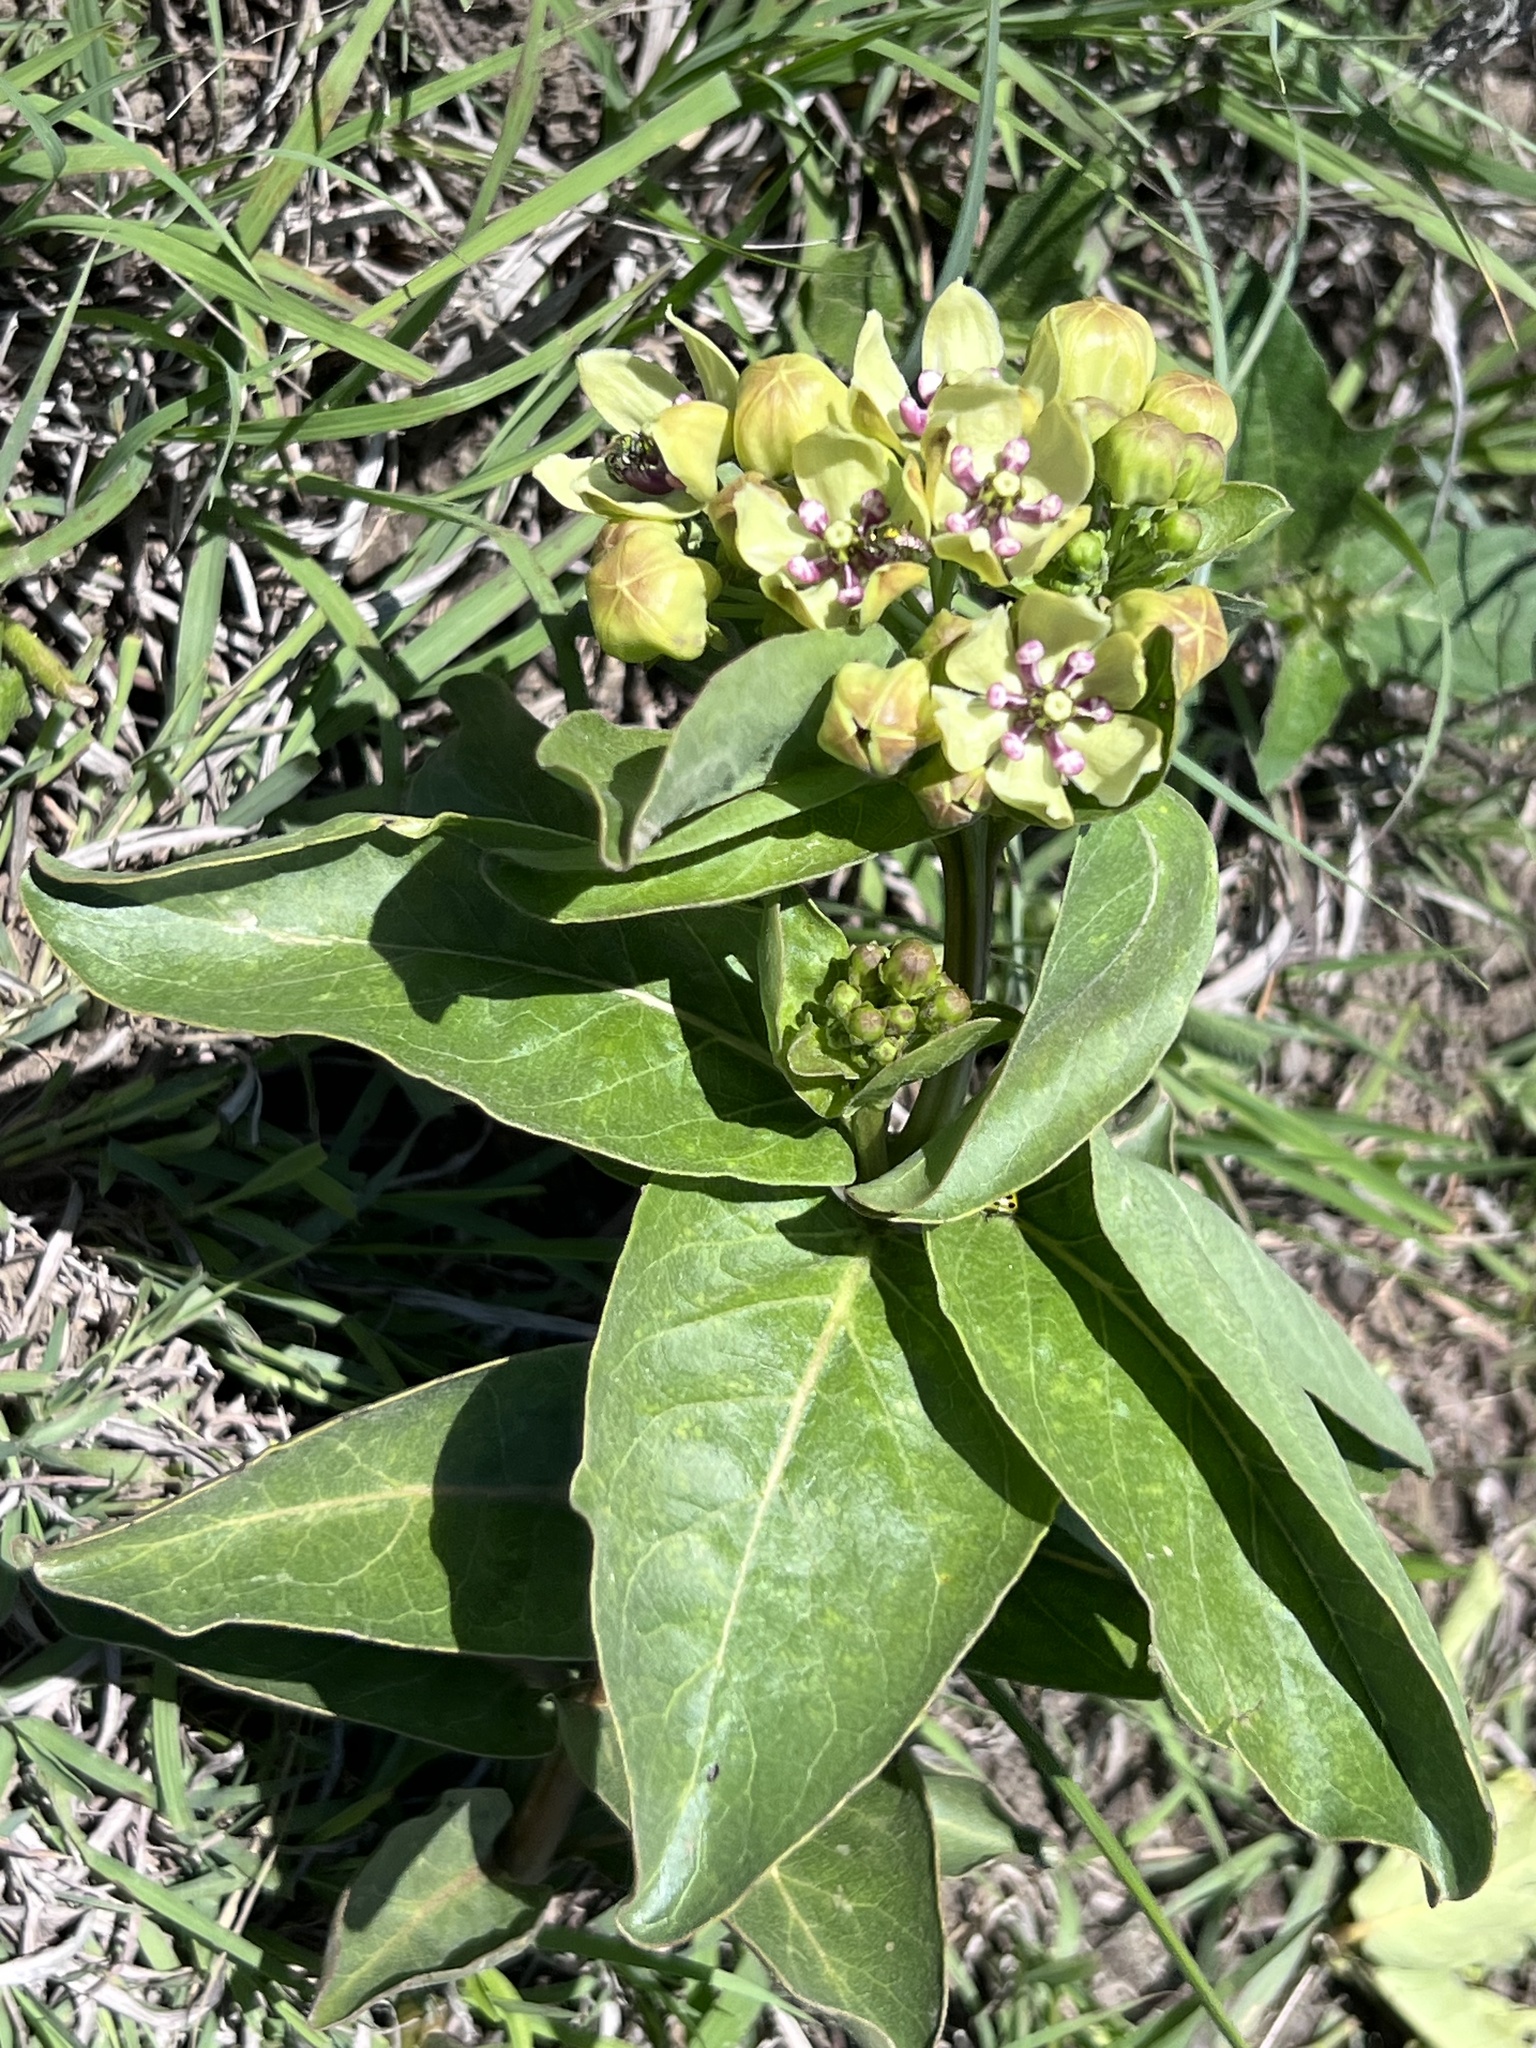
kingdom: Plantae
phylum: Tracheophyta
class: Magnoliopsida
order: Gentianales
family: Apocynaceae
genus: Asclepias
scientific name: Asclepias viridis
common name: Antelope-horns
